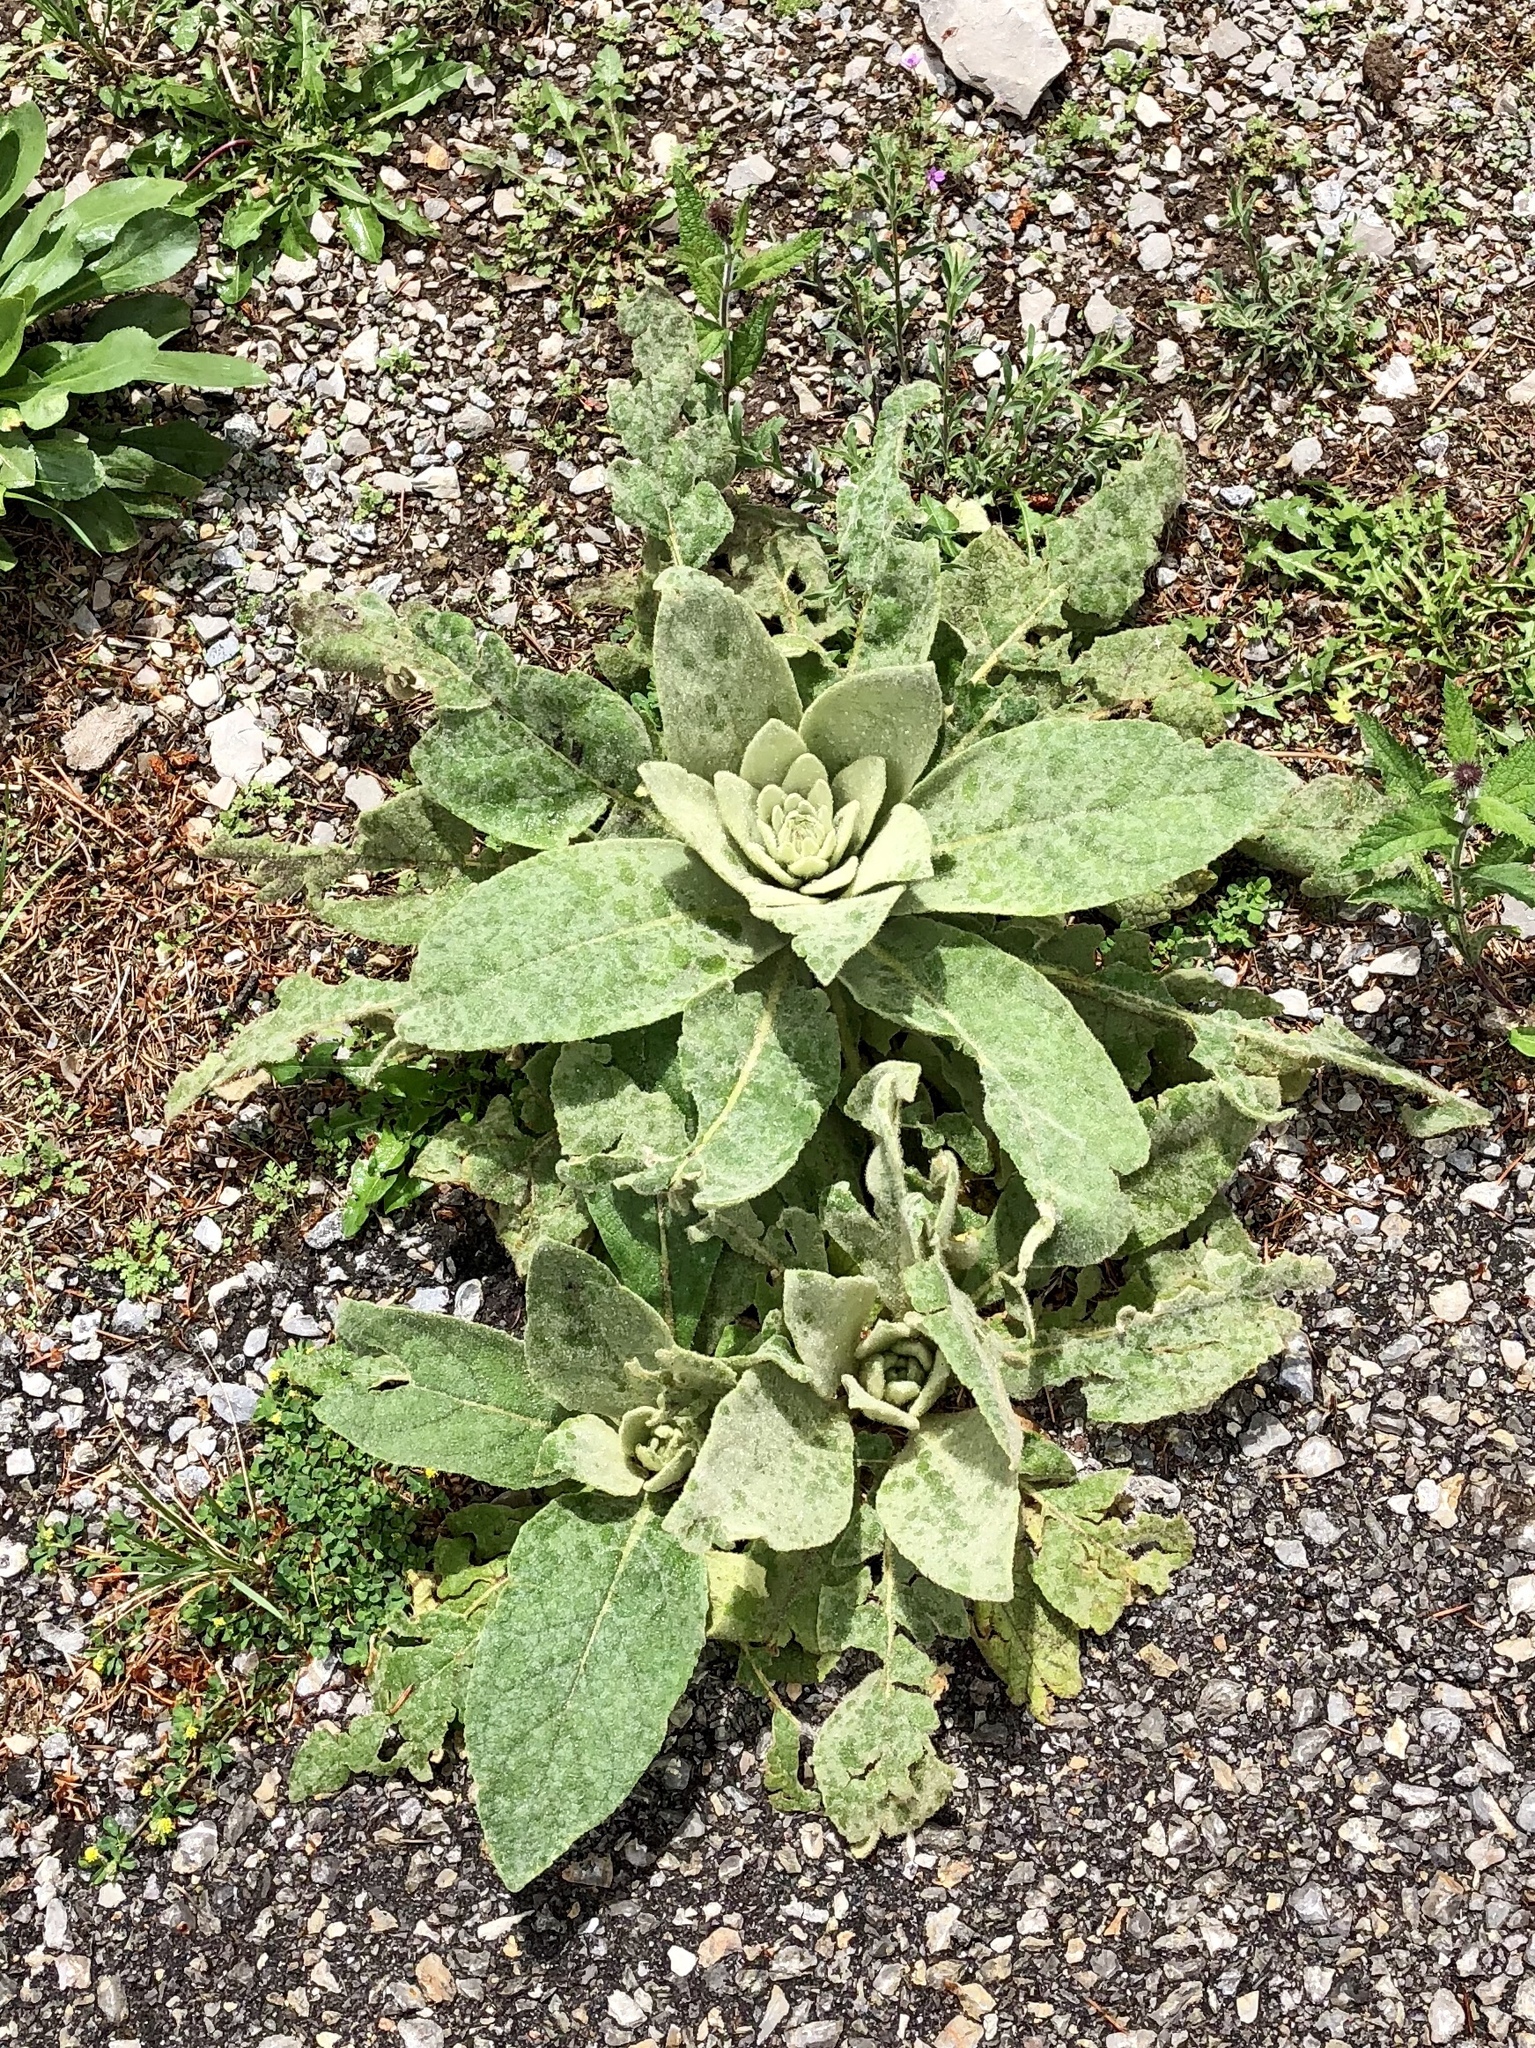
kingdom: Plantae
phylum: Tracheophyta
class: Magnoliopsida
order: Lamiales
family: Scrophulariaceae
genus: Verbascum
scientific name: Verbascum thapsus
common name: Common mullein
